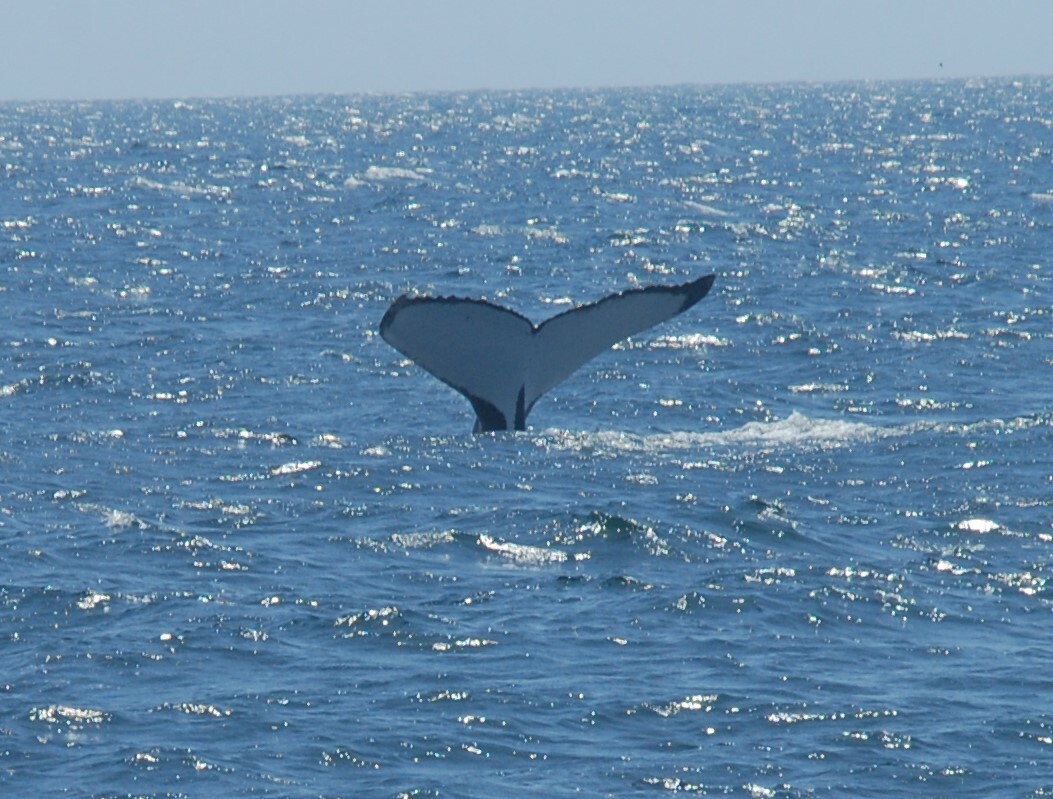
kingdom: Animalia
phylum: Chordata
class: Mammalia
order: Cetacea
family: Balaenopteridae
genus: Megaptera
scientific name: Megaptera novaeangliae
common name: Humpback whale
